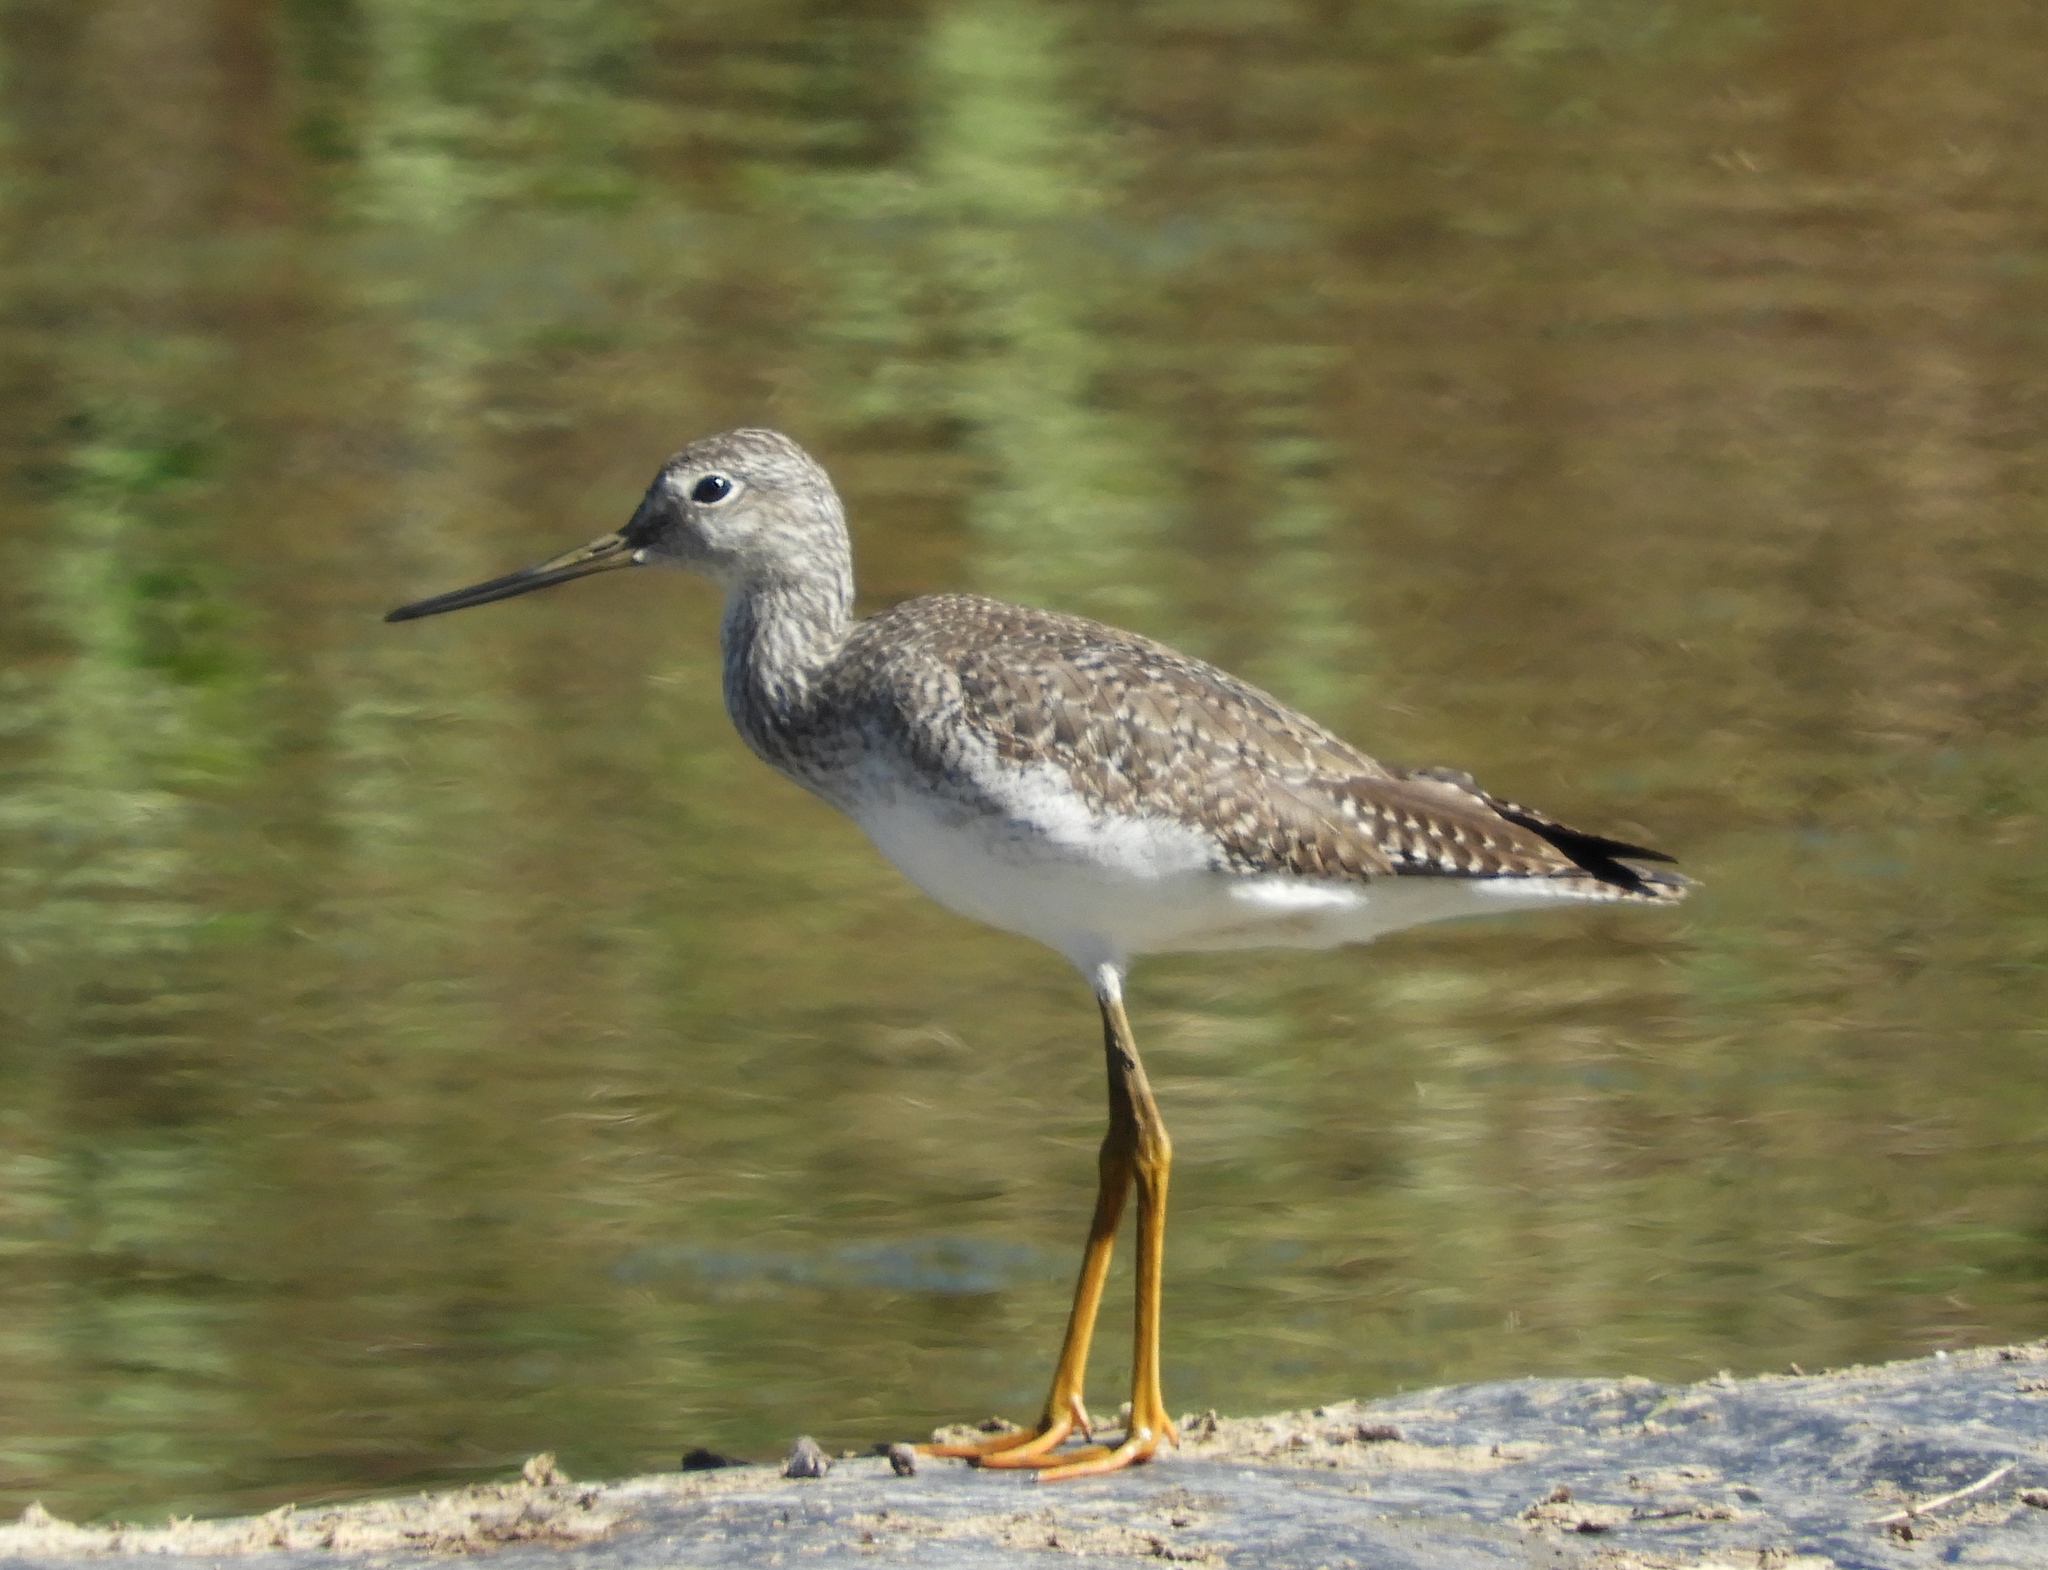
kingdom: Animalia
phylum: Chordata
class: Aves
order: Charadriiformes
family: Scolopacidae
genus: Tringa
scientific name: Tringa melanoleuca
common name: Greater yellowlegs
